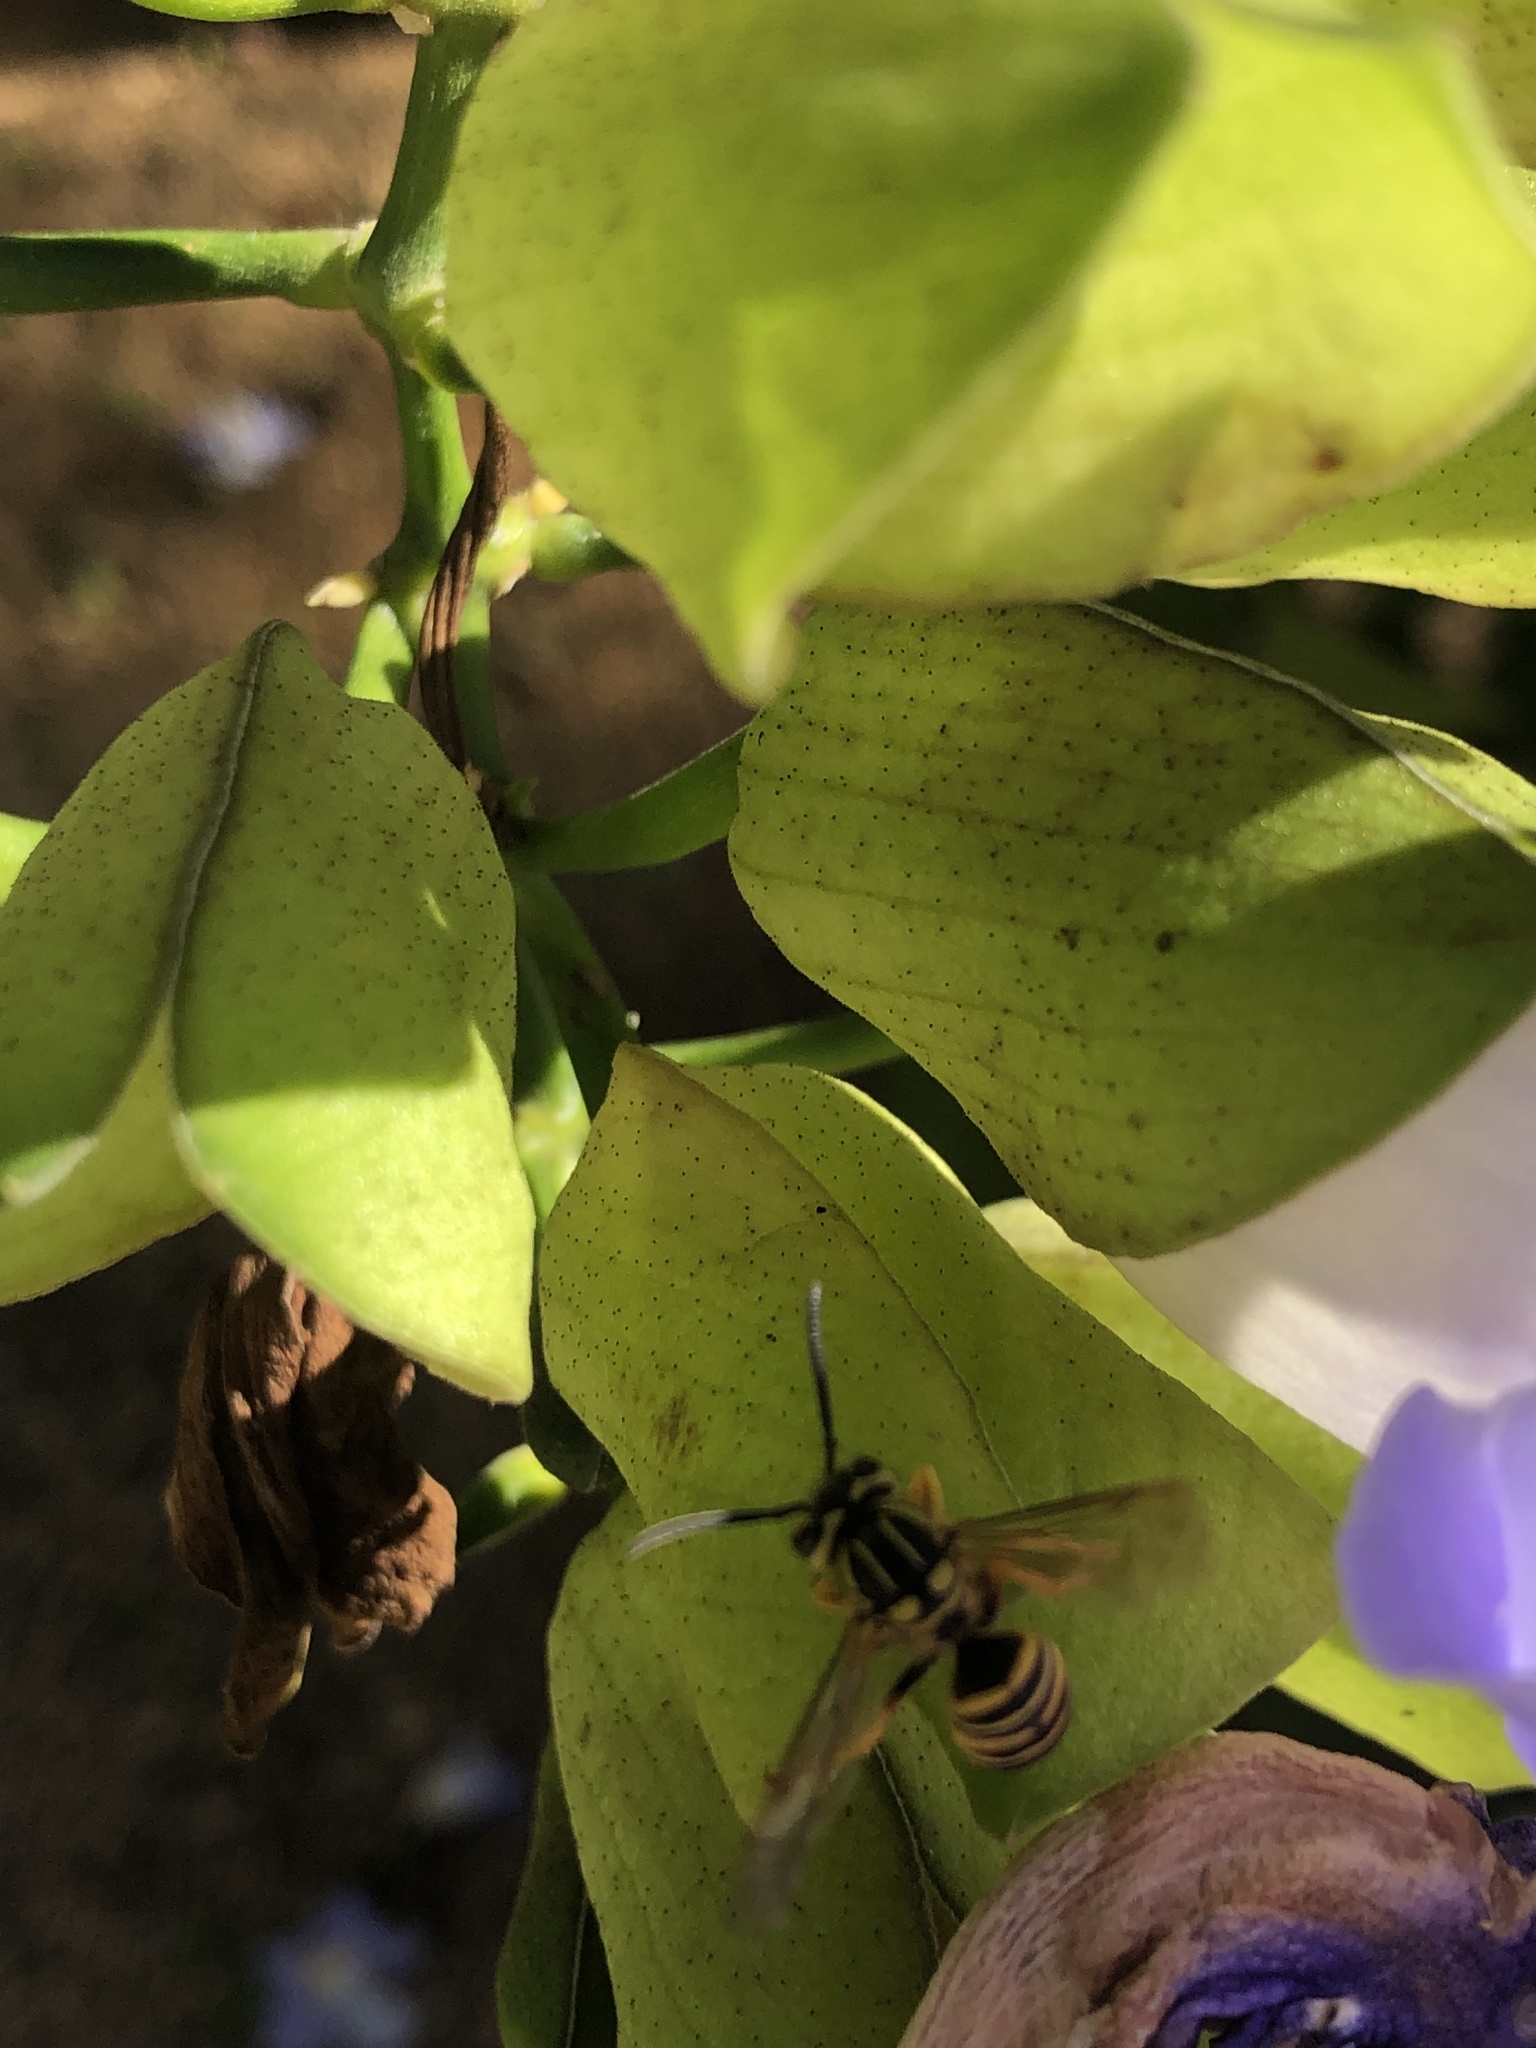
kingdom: Animalia
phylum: Arthropoda
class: Insecta
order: Hymenoptera
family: Vespidae
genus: Vespula
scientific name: Vespula squamosa
